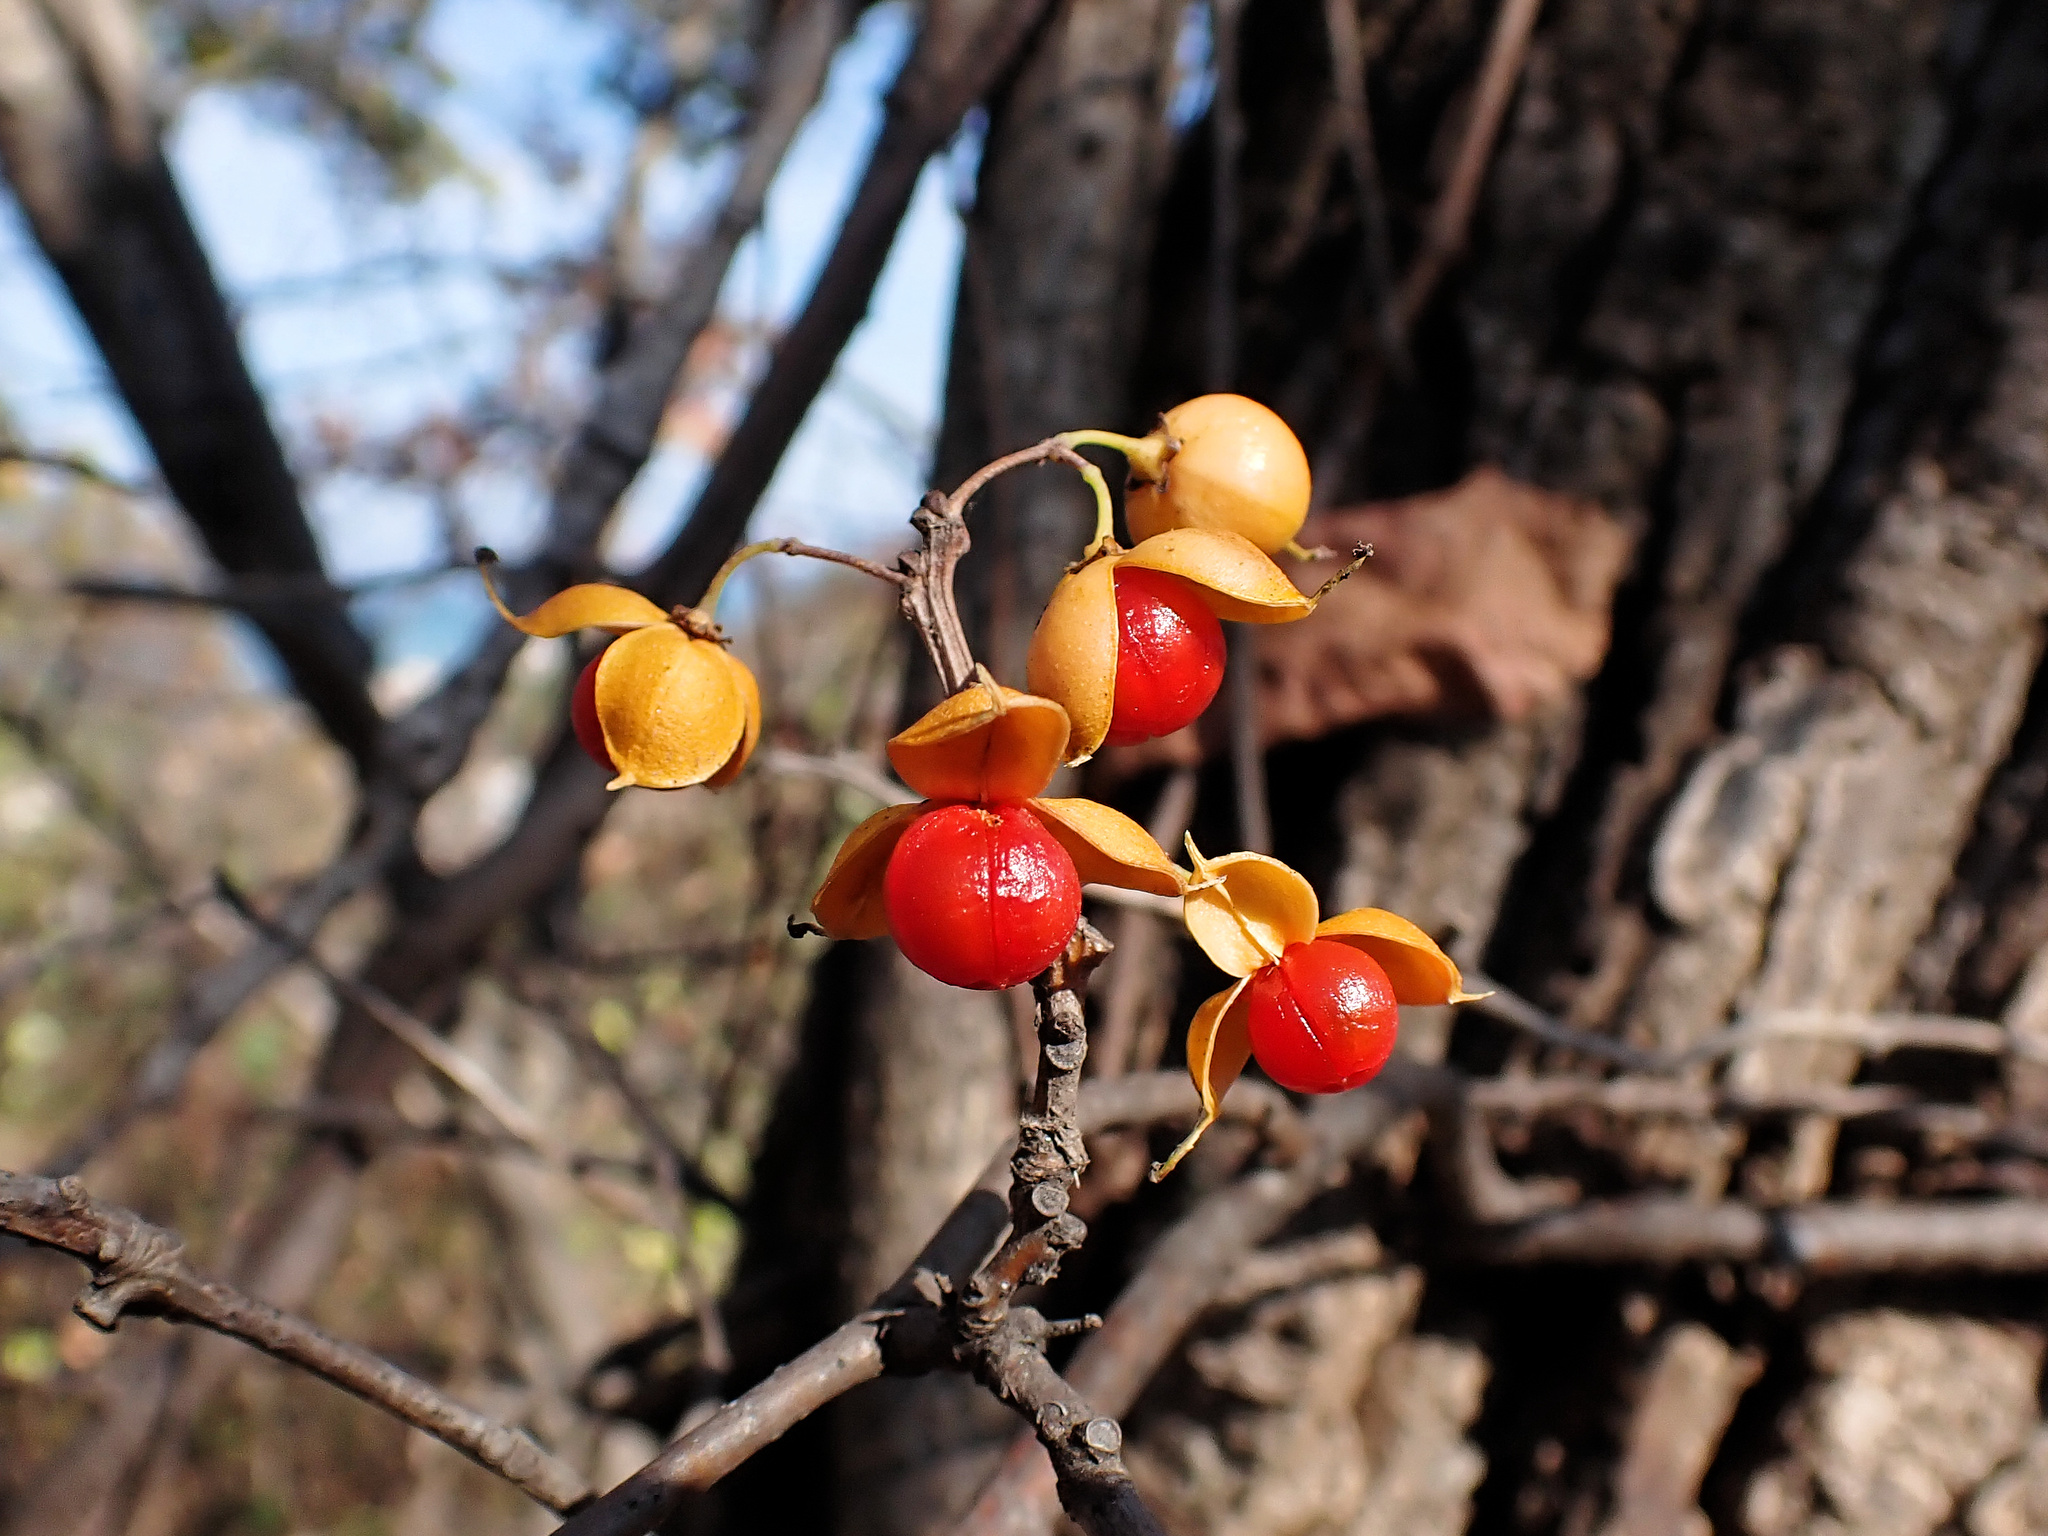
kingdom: Plantae
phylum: Tracheophyta
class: Magnoliopsida
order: Celastrales
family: Celastraceae
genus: Celastrus
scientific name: Celastrus orbiculatus
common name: Oriental bittersweet
